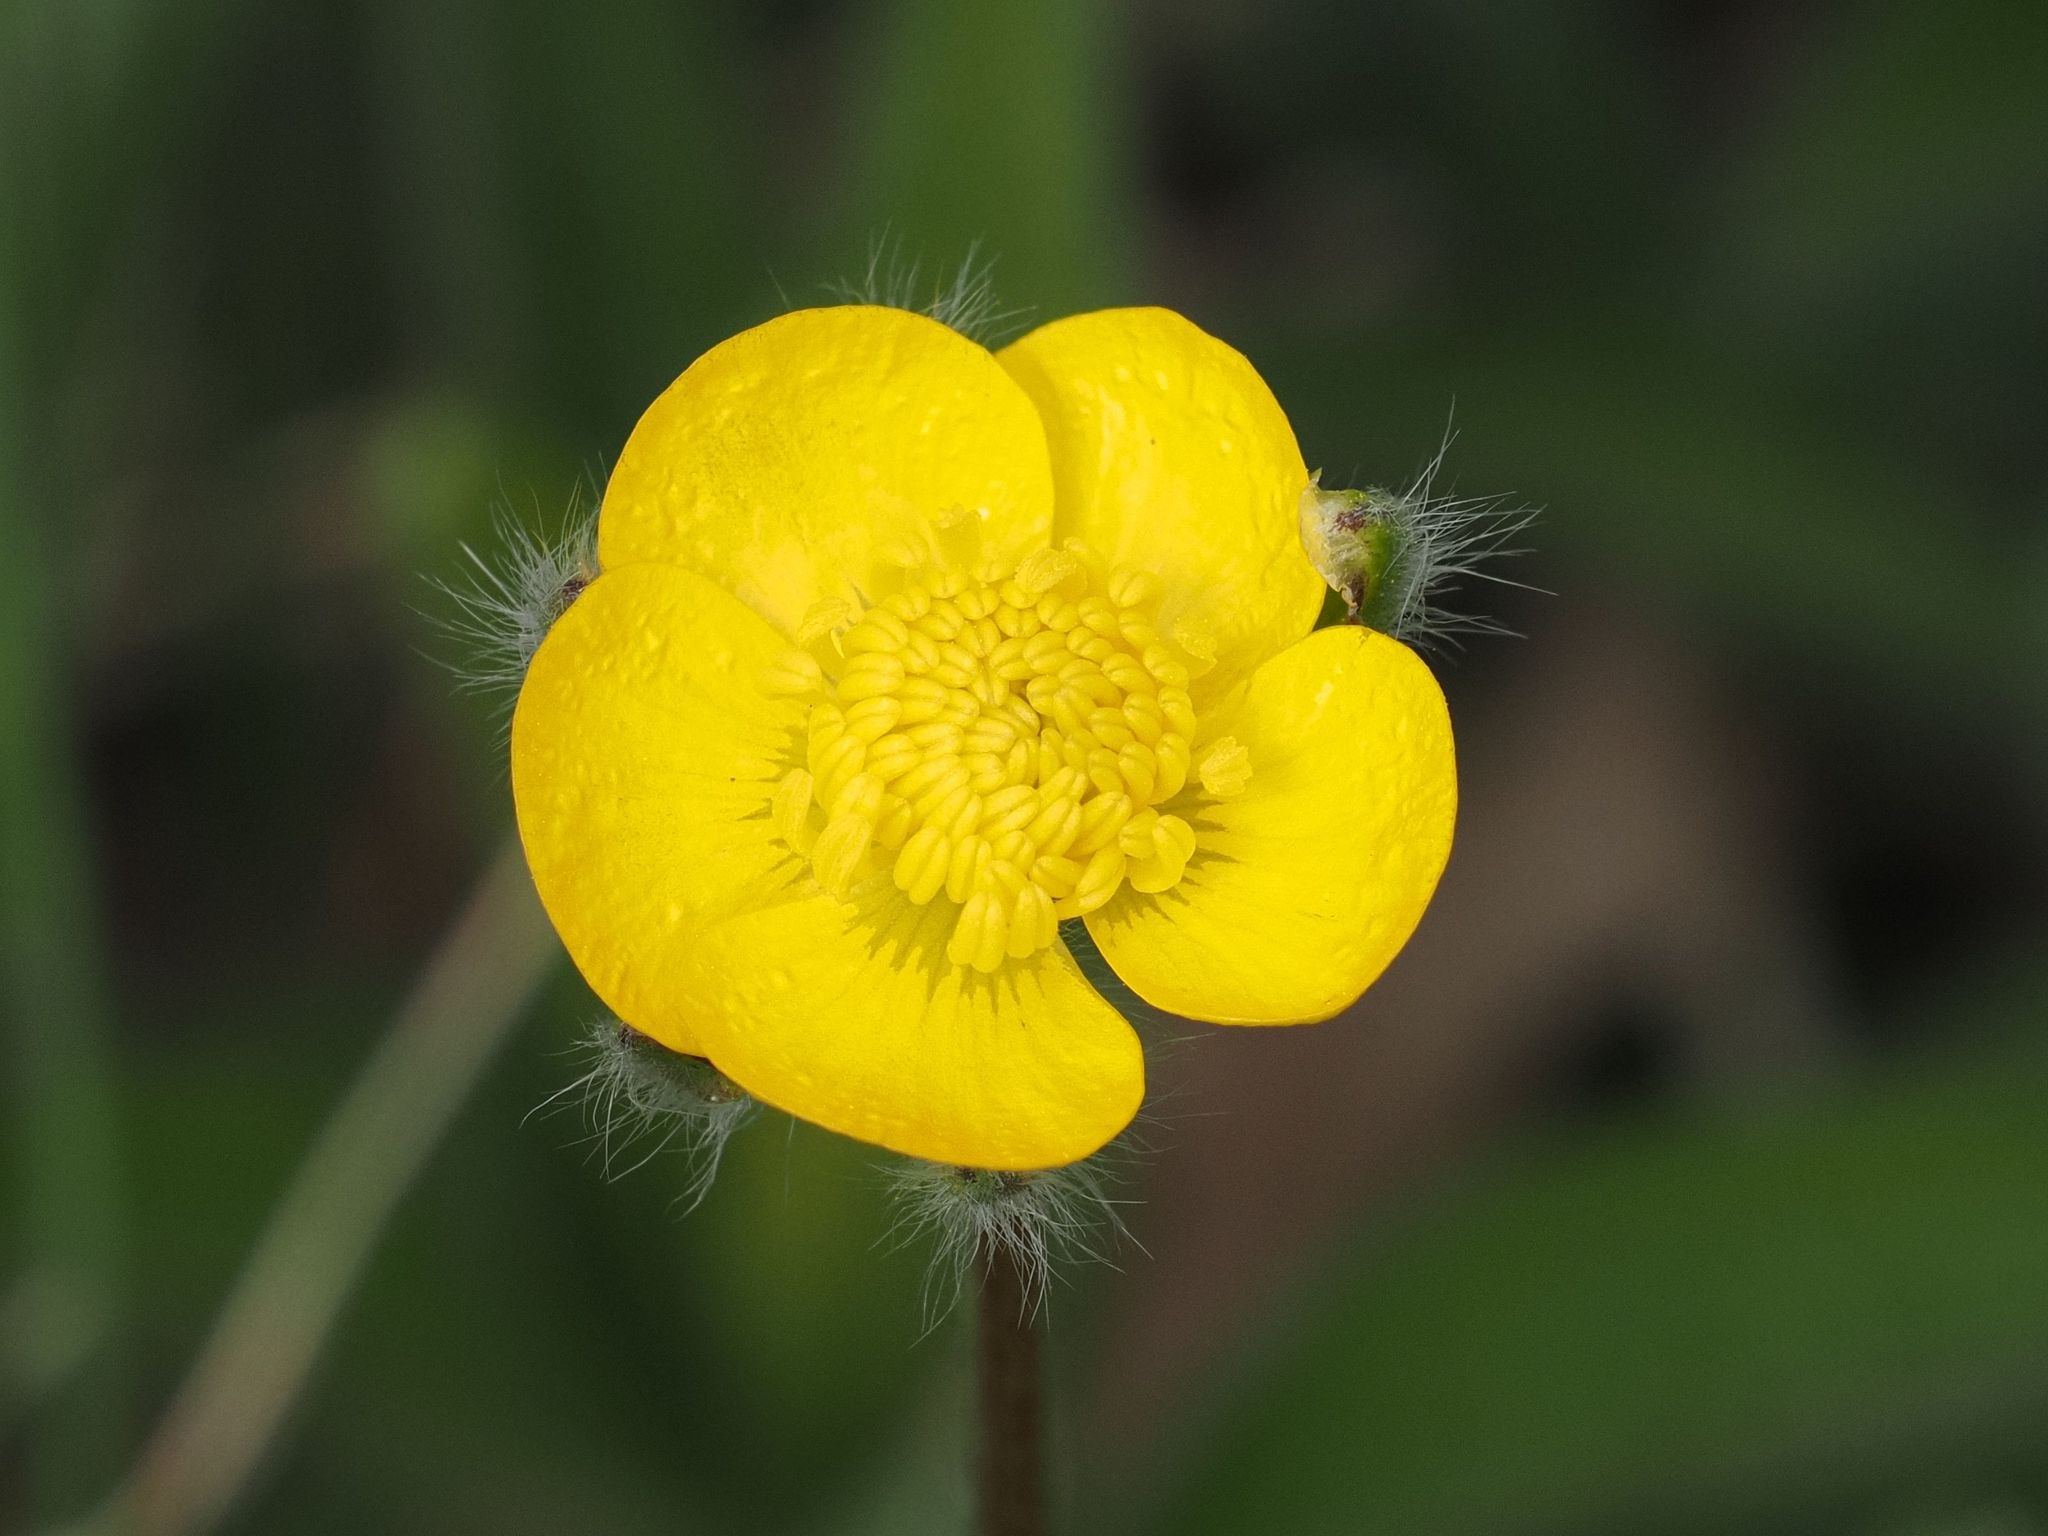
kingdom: Plantae
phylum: Tracheophyta
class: Magnoliopsida
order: Ranunculales
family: Ranunculaceae
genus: Ranunculus
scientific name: Ranunculus bulbosus
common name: Bulbous buttercup
